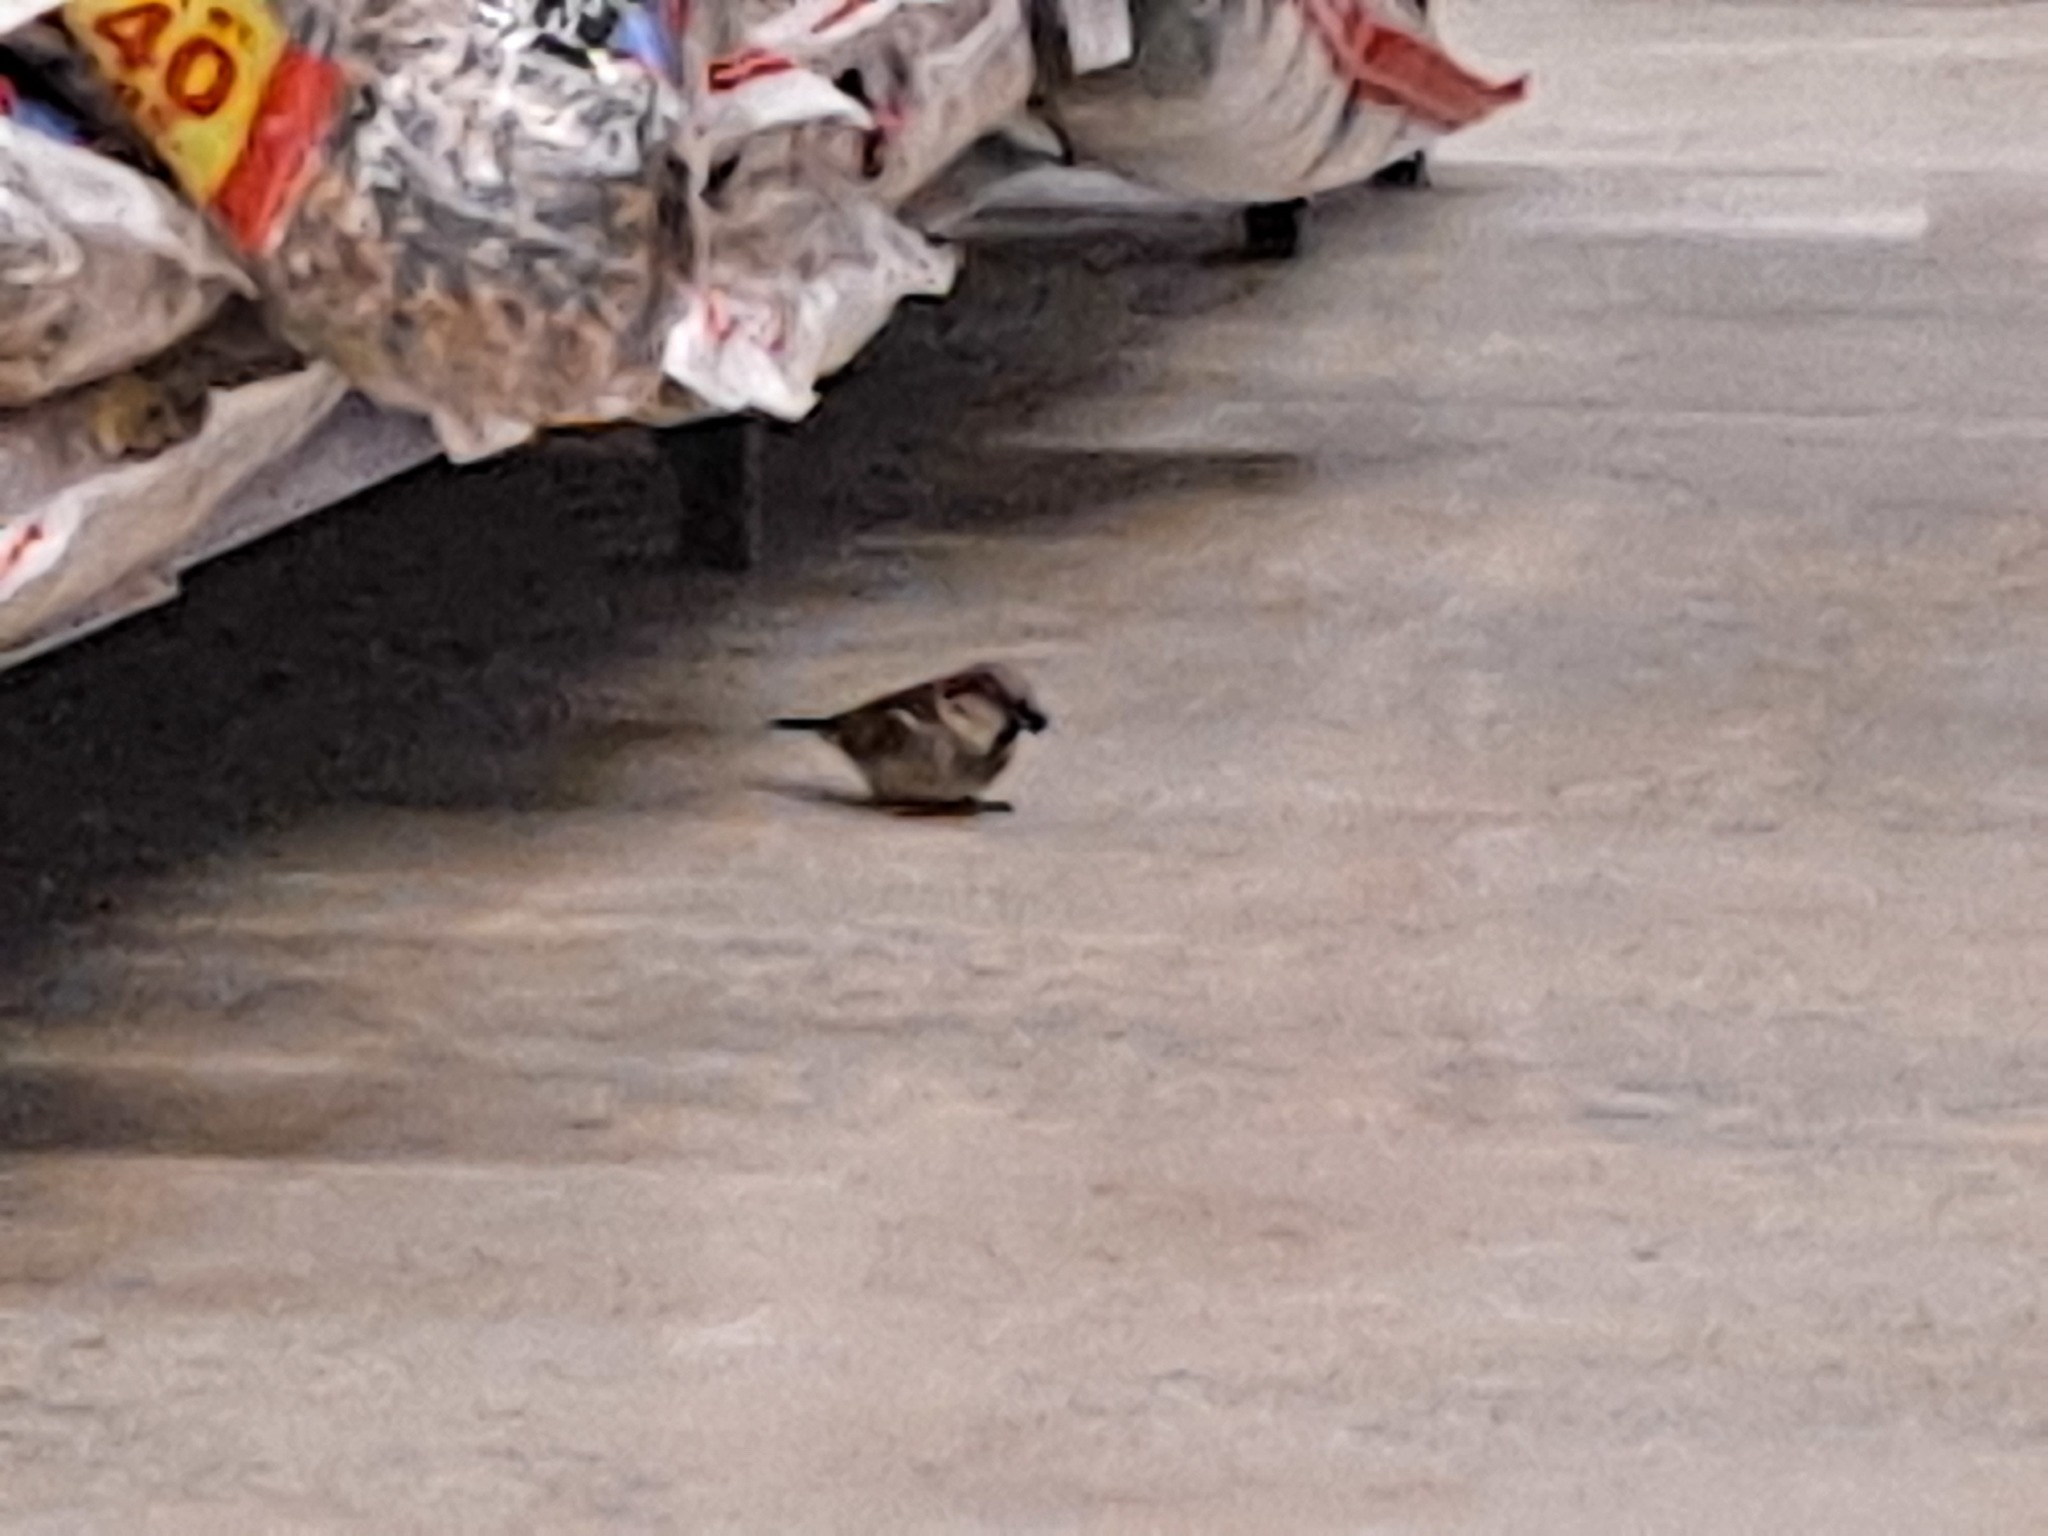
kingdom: Animalia
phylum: Chordata
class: Aves
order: Passeriformes
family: Passeridae
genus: Passer
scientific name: Passer domesticus
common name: House sparrow
